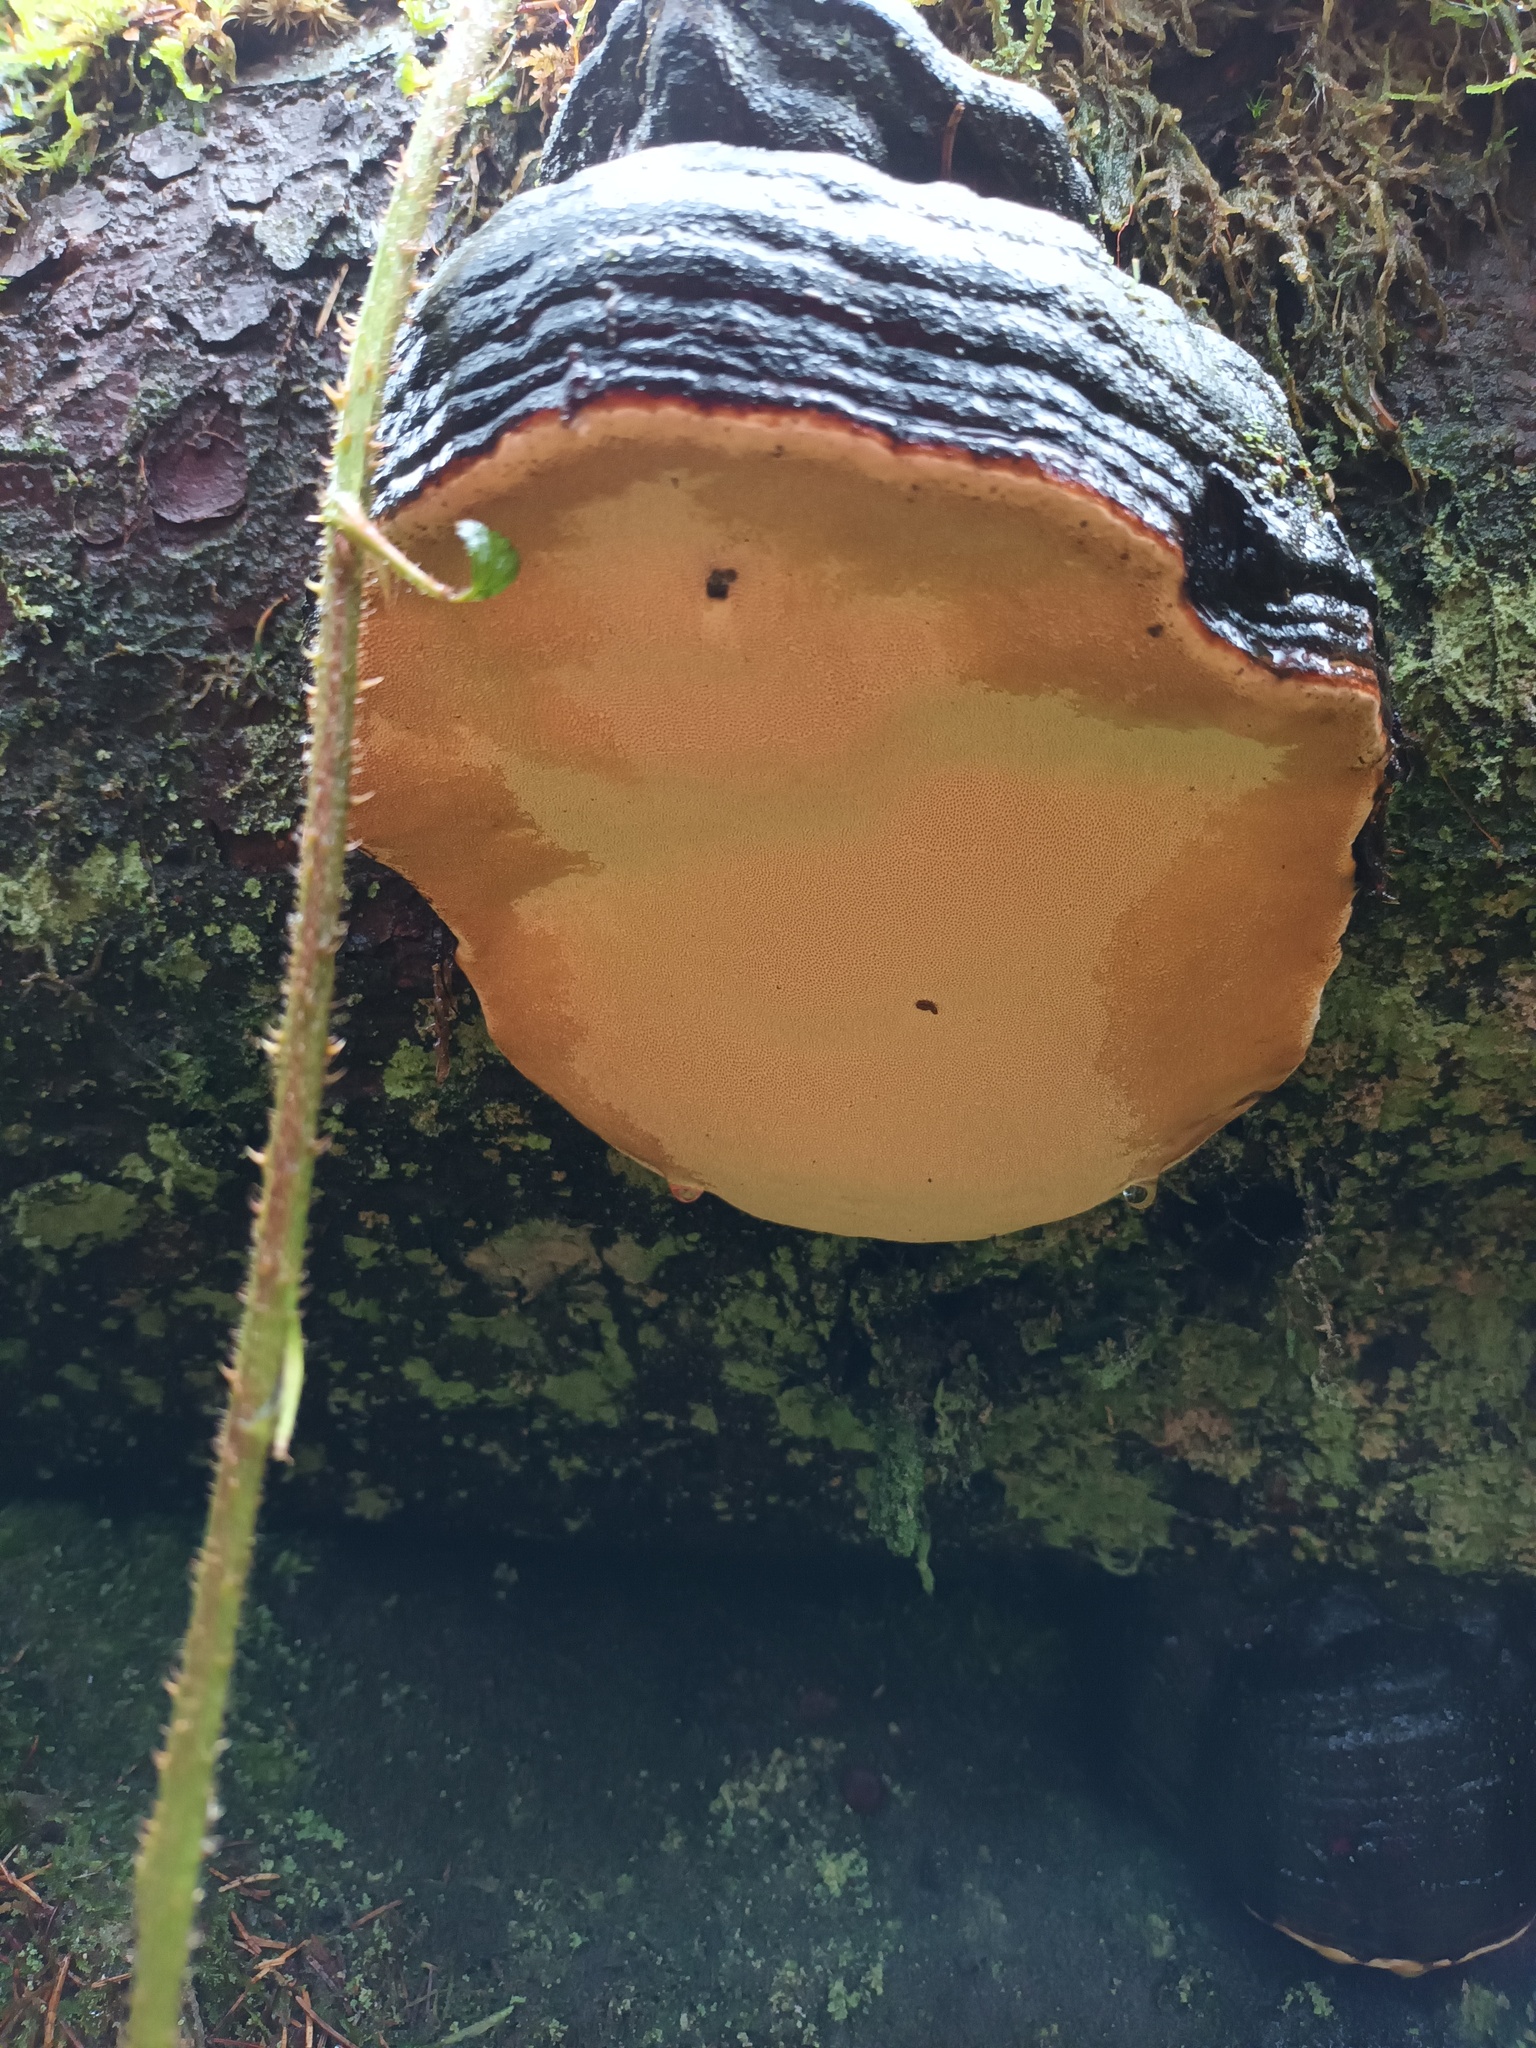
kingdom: Fungi
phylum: Basidiomycota
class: Agaricomycetes
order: Polyporales
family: Fomitopsidaceae
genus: Fomitopsis
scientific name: Fomitopsis pinicola
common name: Red-belted bracket
